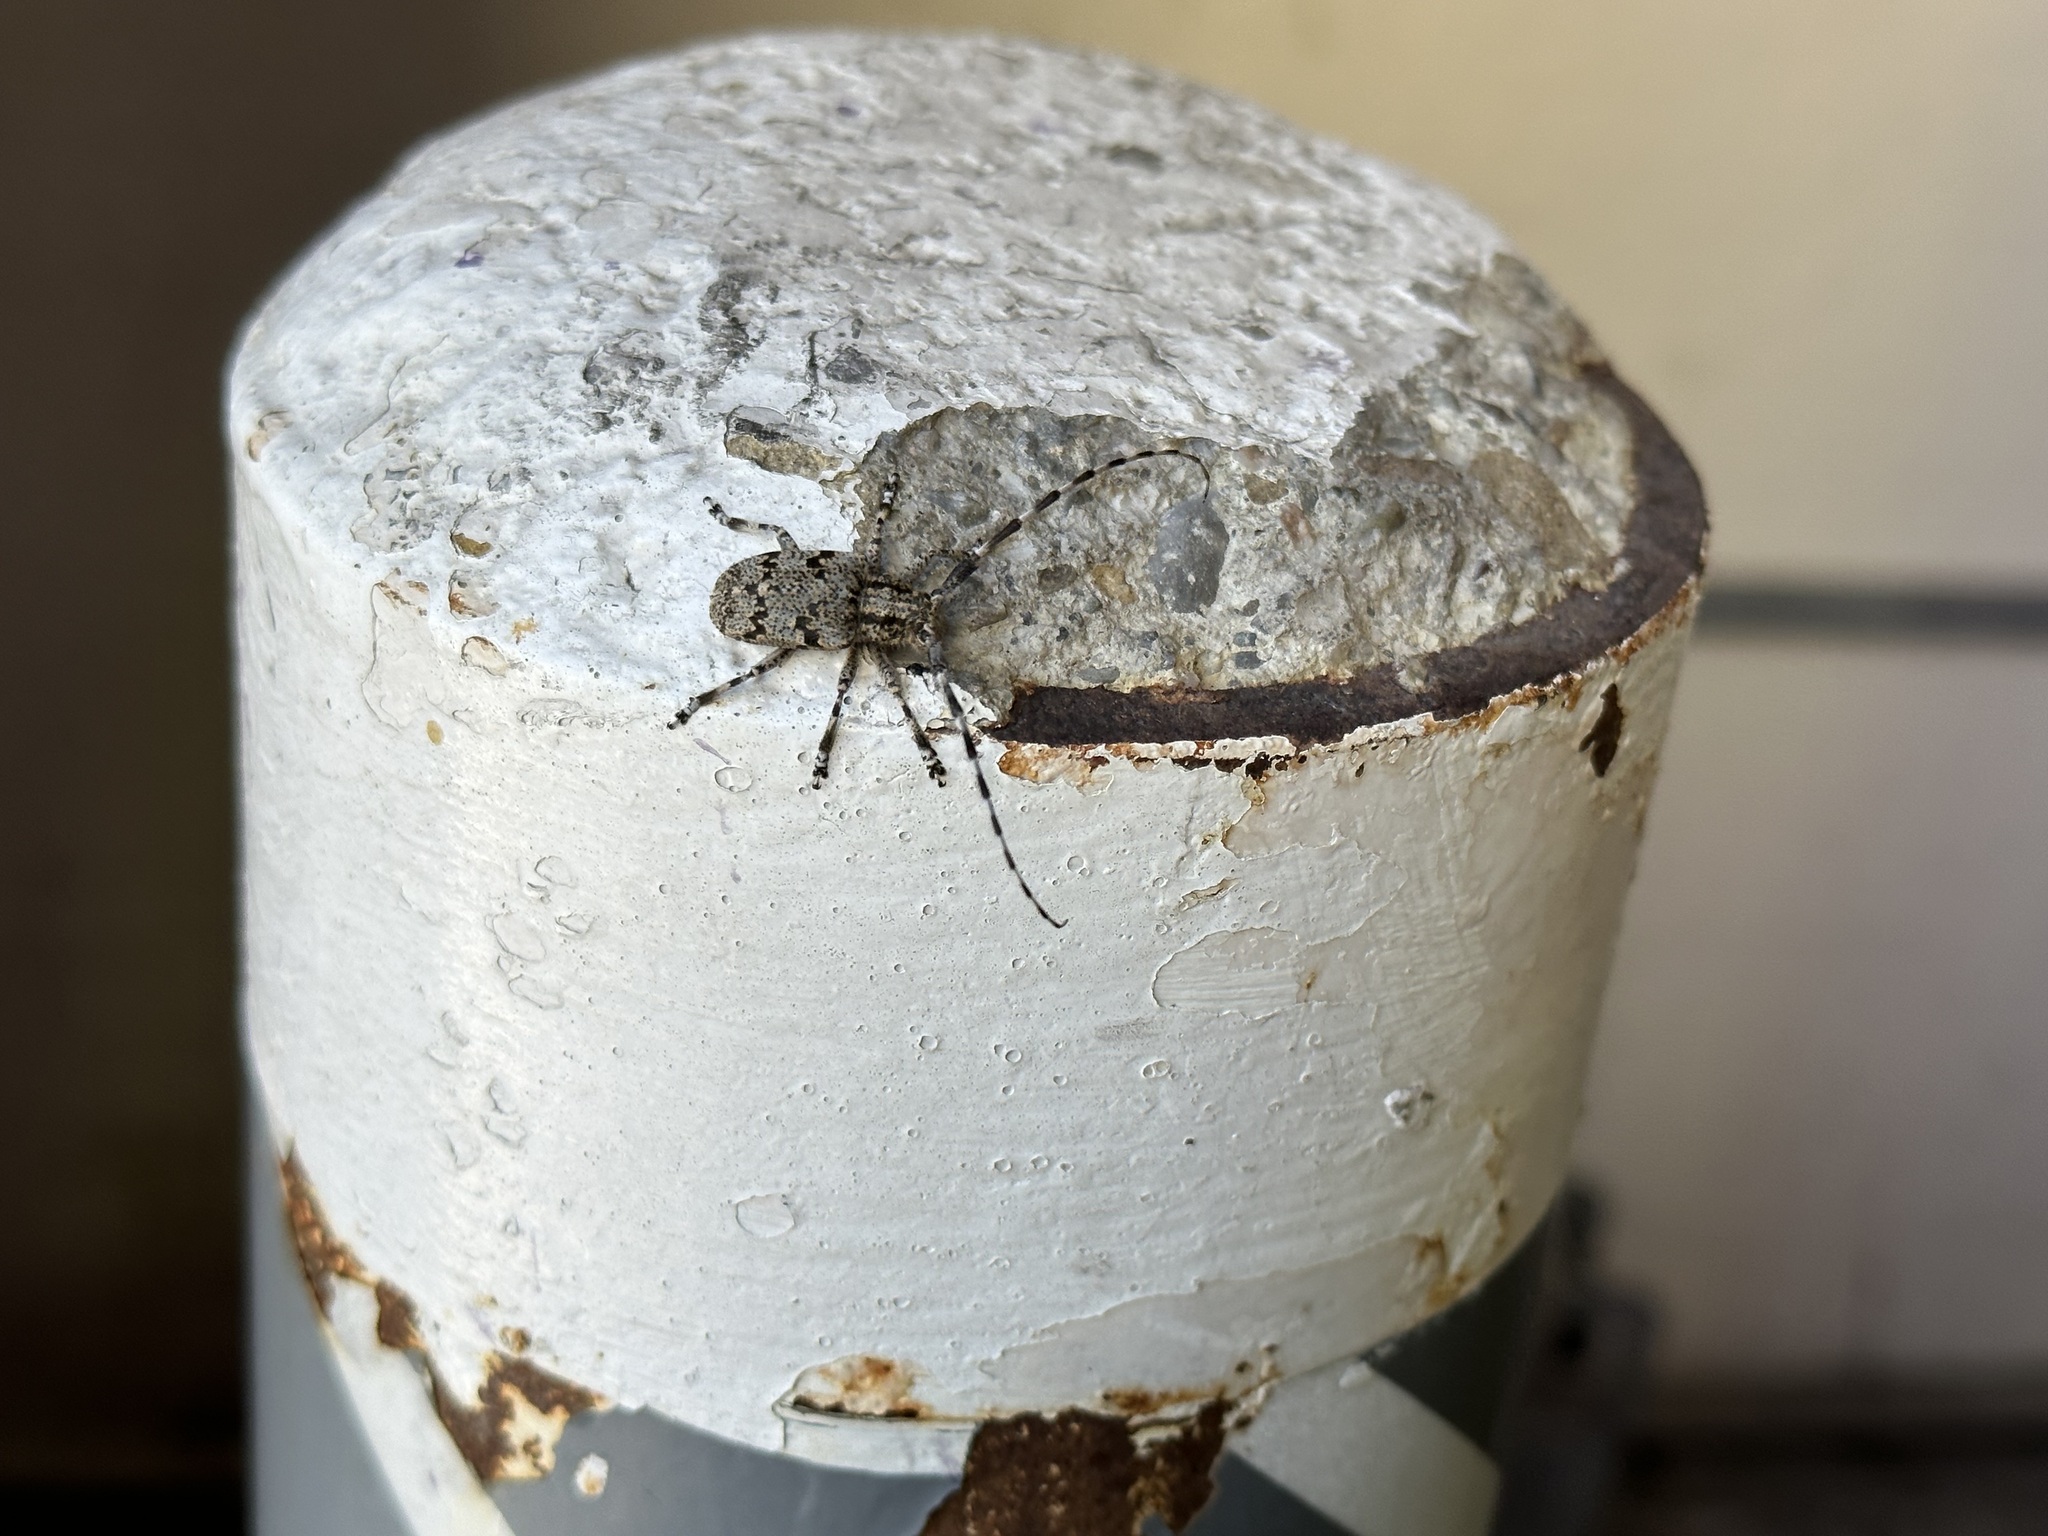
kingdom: Animalia
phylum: Arthropoda
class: Insecta
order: Coleoptera
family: Cerambycidae
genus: Synaphaeta
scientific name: Synaphaeta guexi
